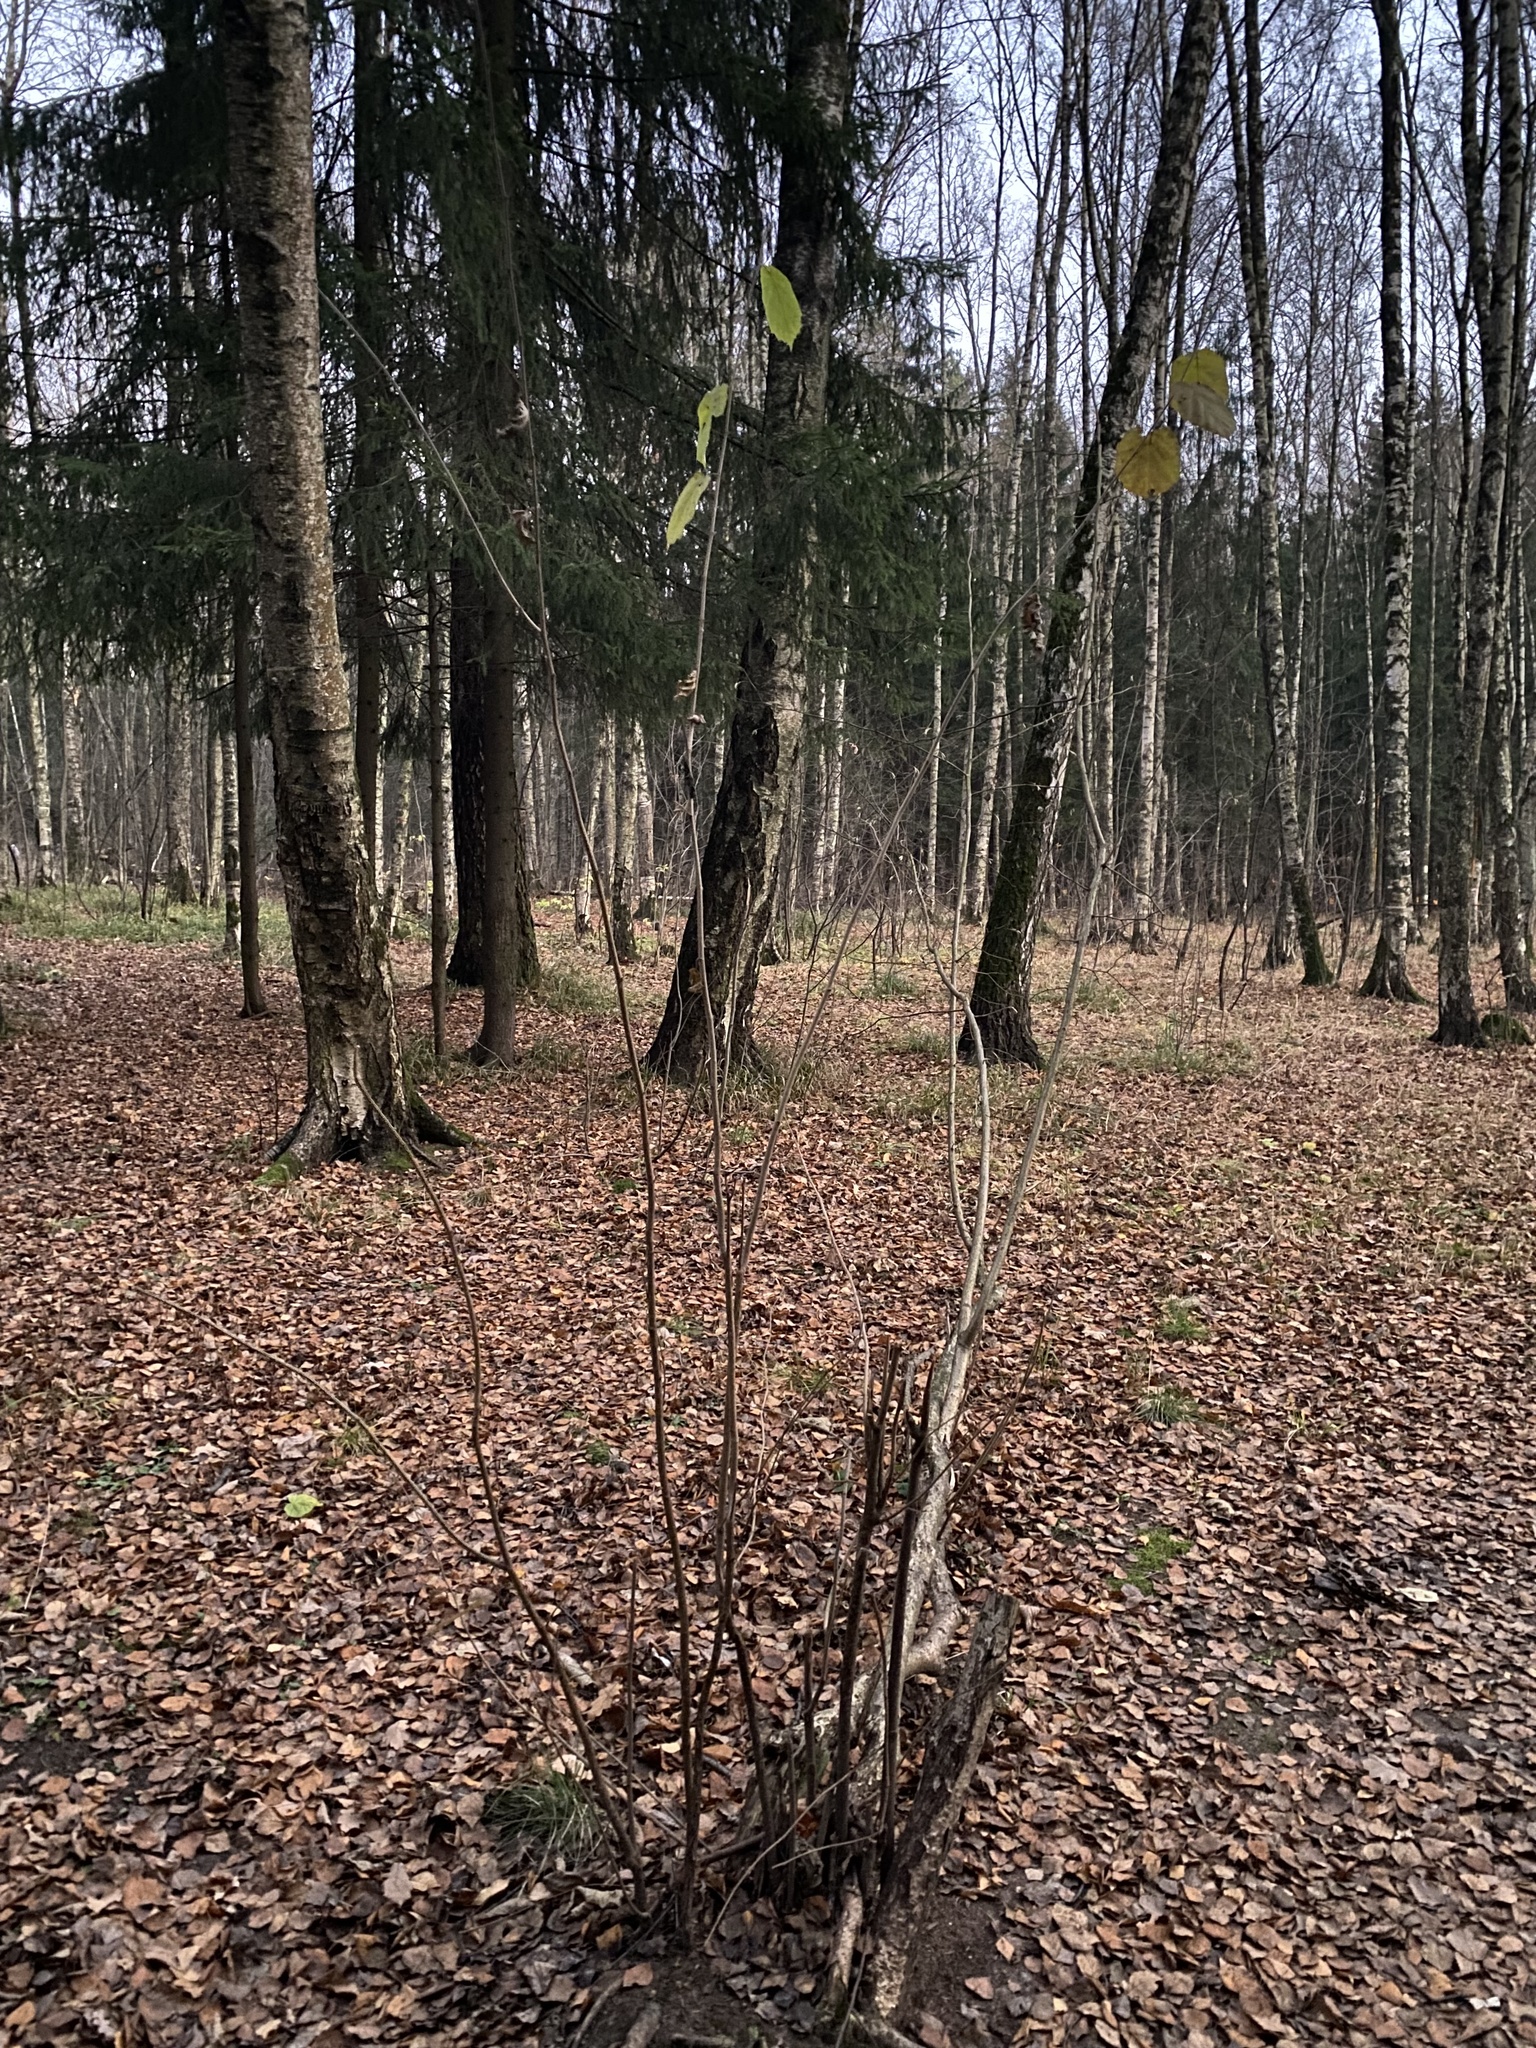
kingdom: Plantae
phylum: Tracheophyta
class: Magnoliopsida
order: Fagales
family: Betulaceae
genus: Corylus
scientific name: Corylus avellana
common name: European hazel
